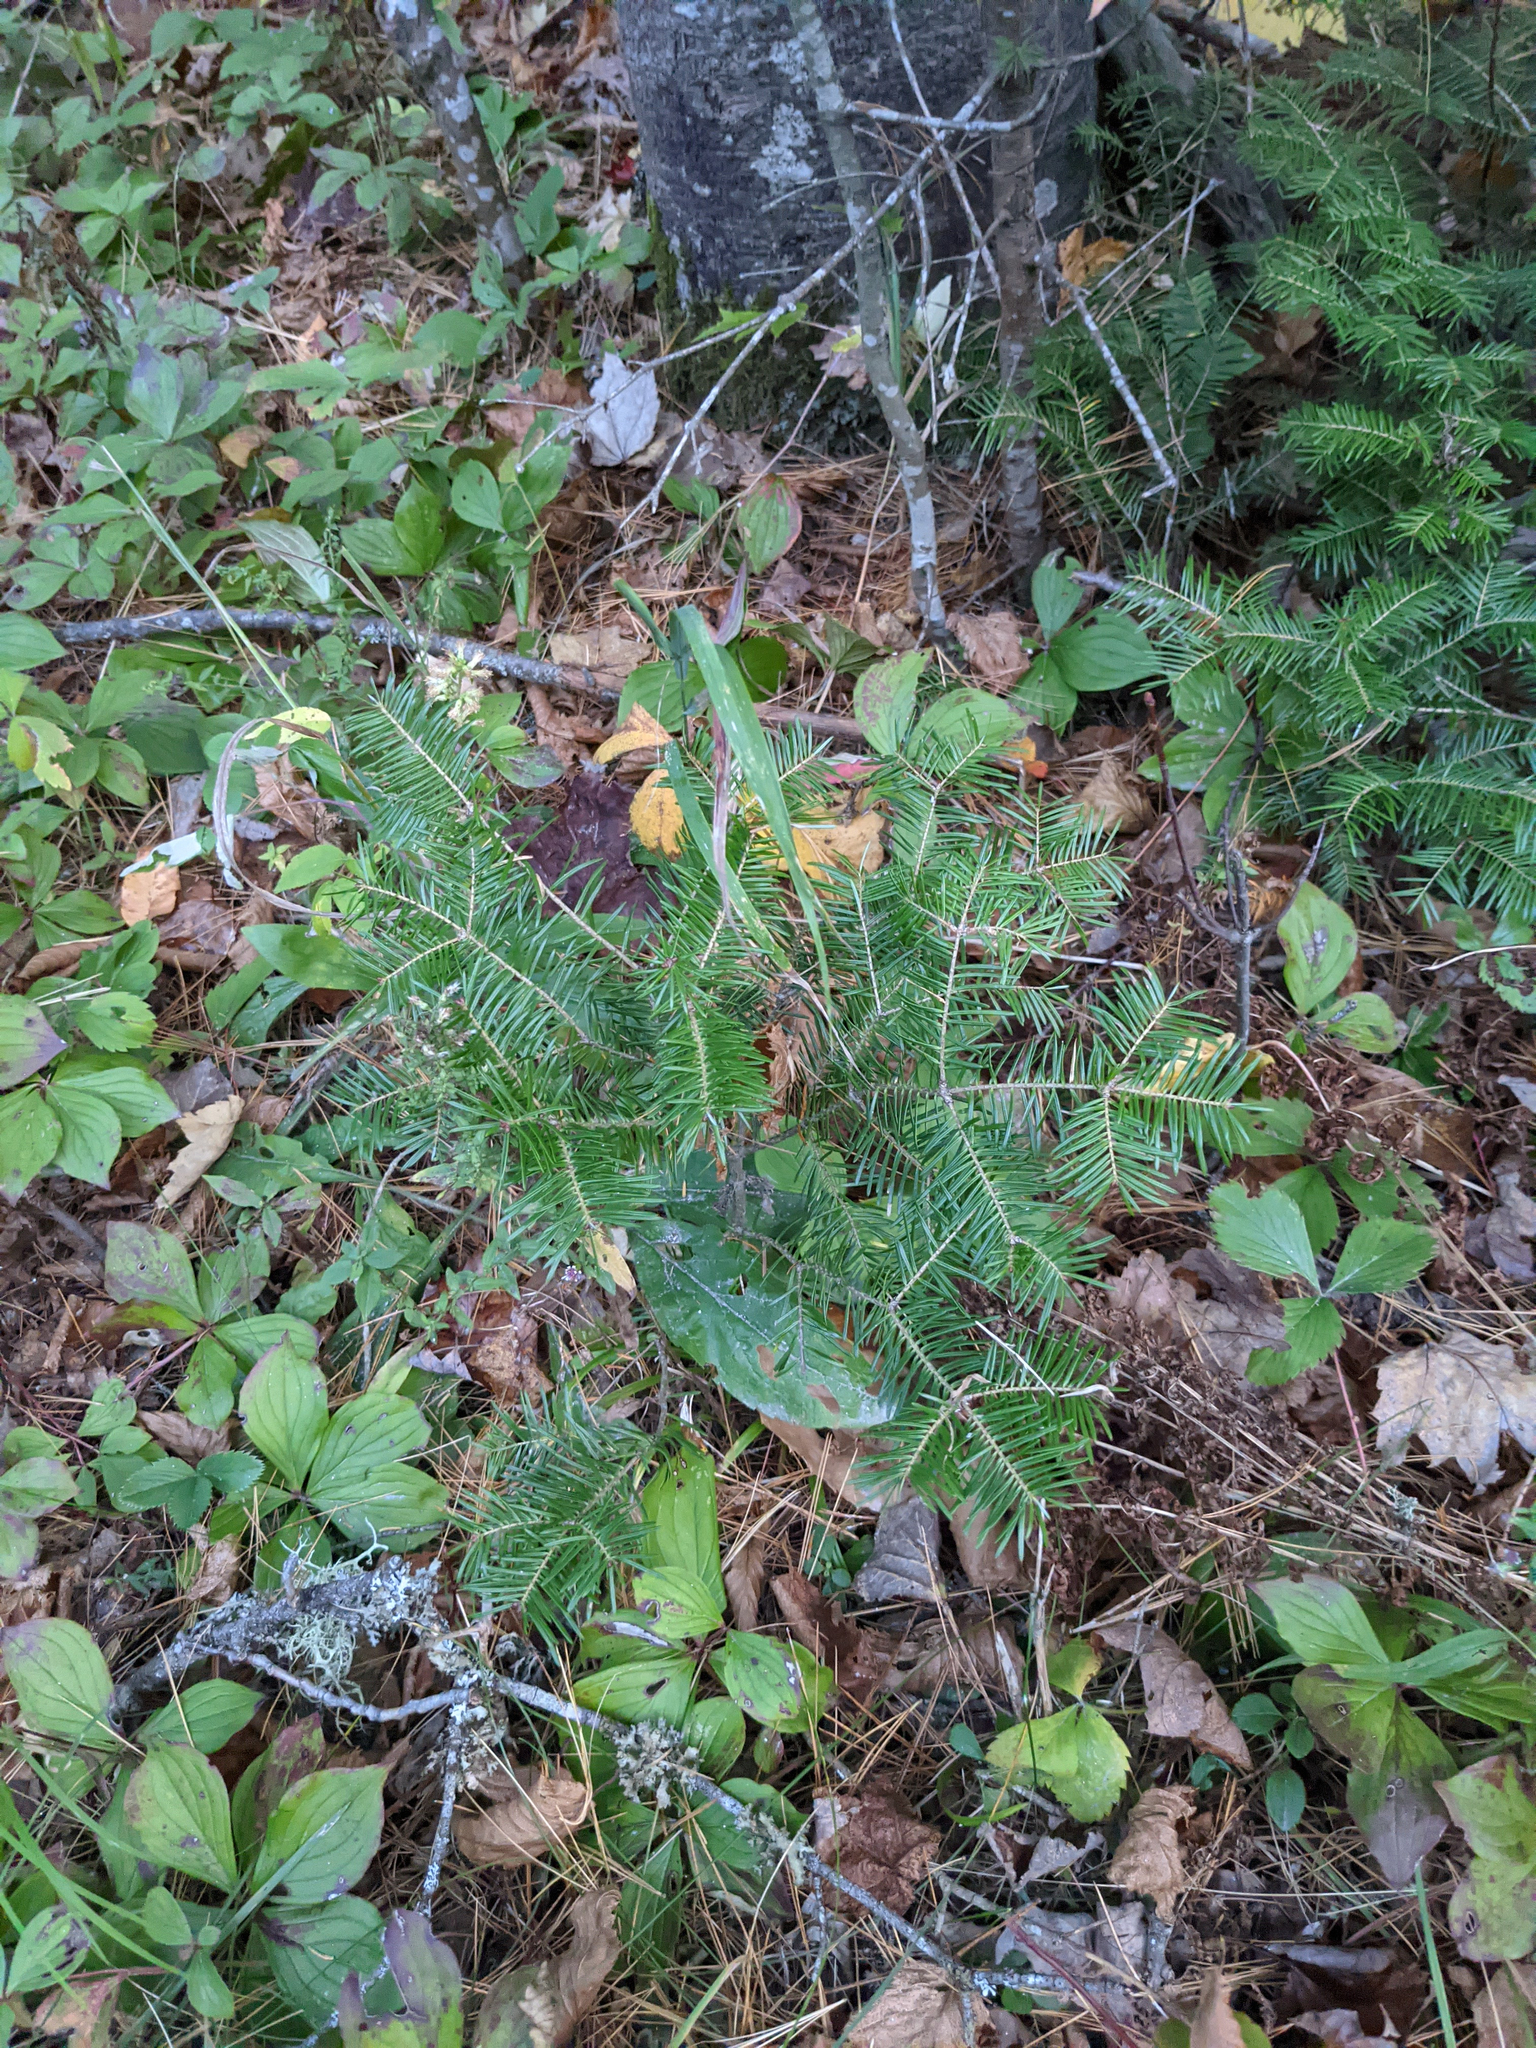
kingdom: Plantae
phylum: Tracheophyta
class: Pinopsida
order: Pinales
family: Pinaceae
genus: Abies
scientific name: Abies balsamea
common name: Balsam fir
